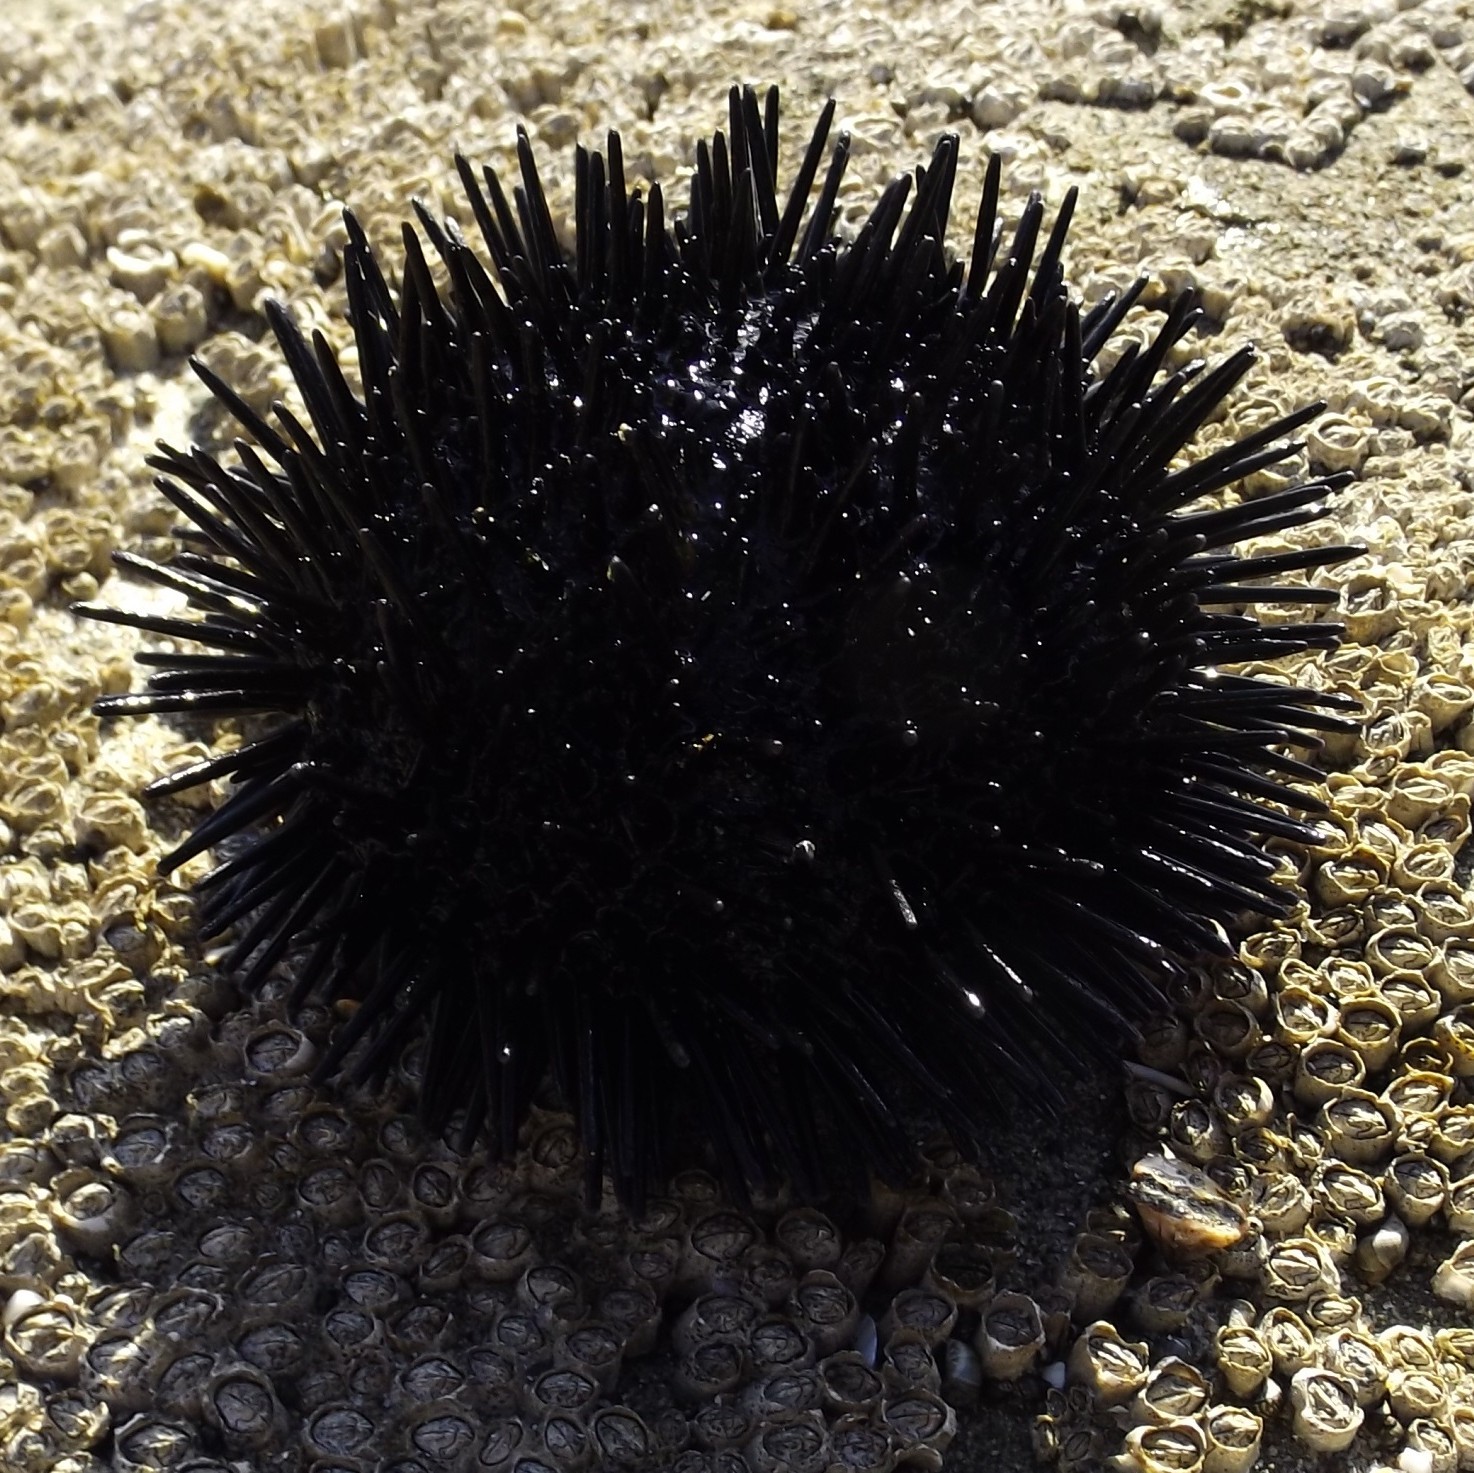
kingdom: Animalia
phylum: Echinodermata
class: Echinoidea
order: Arbacioida
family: Arbaciidae
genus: Tetrapygus
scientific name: Tetrapygus niger
